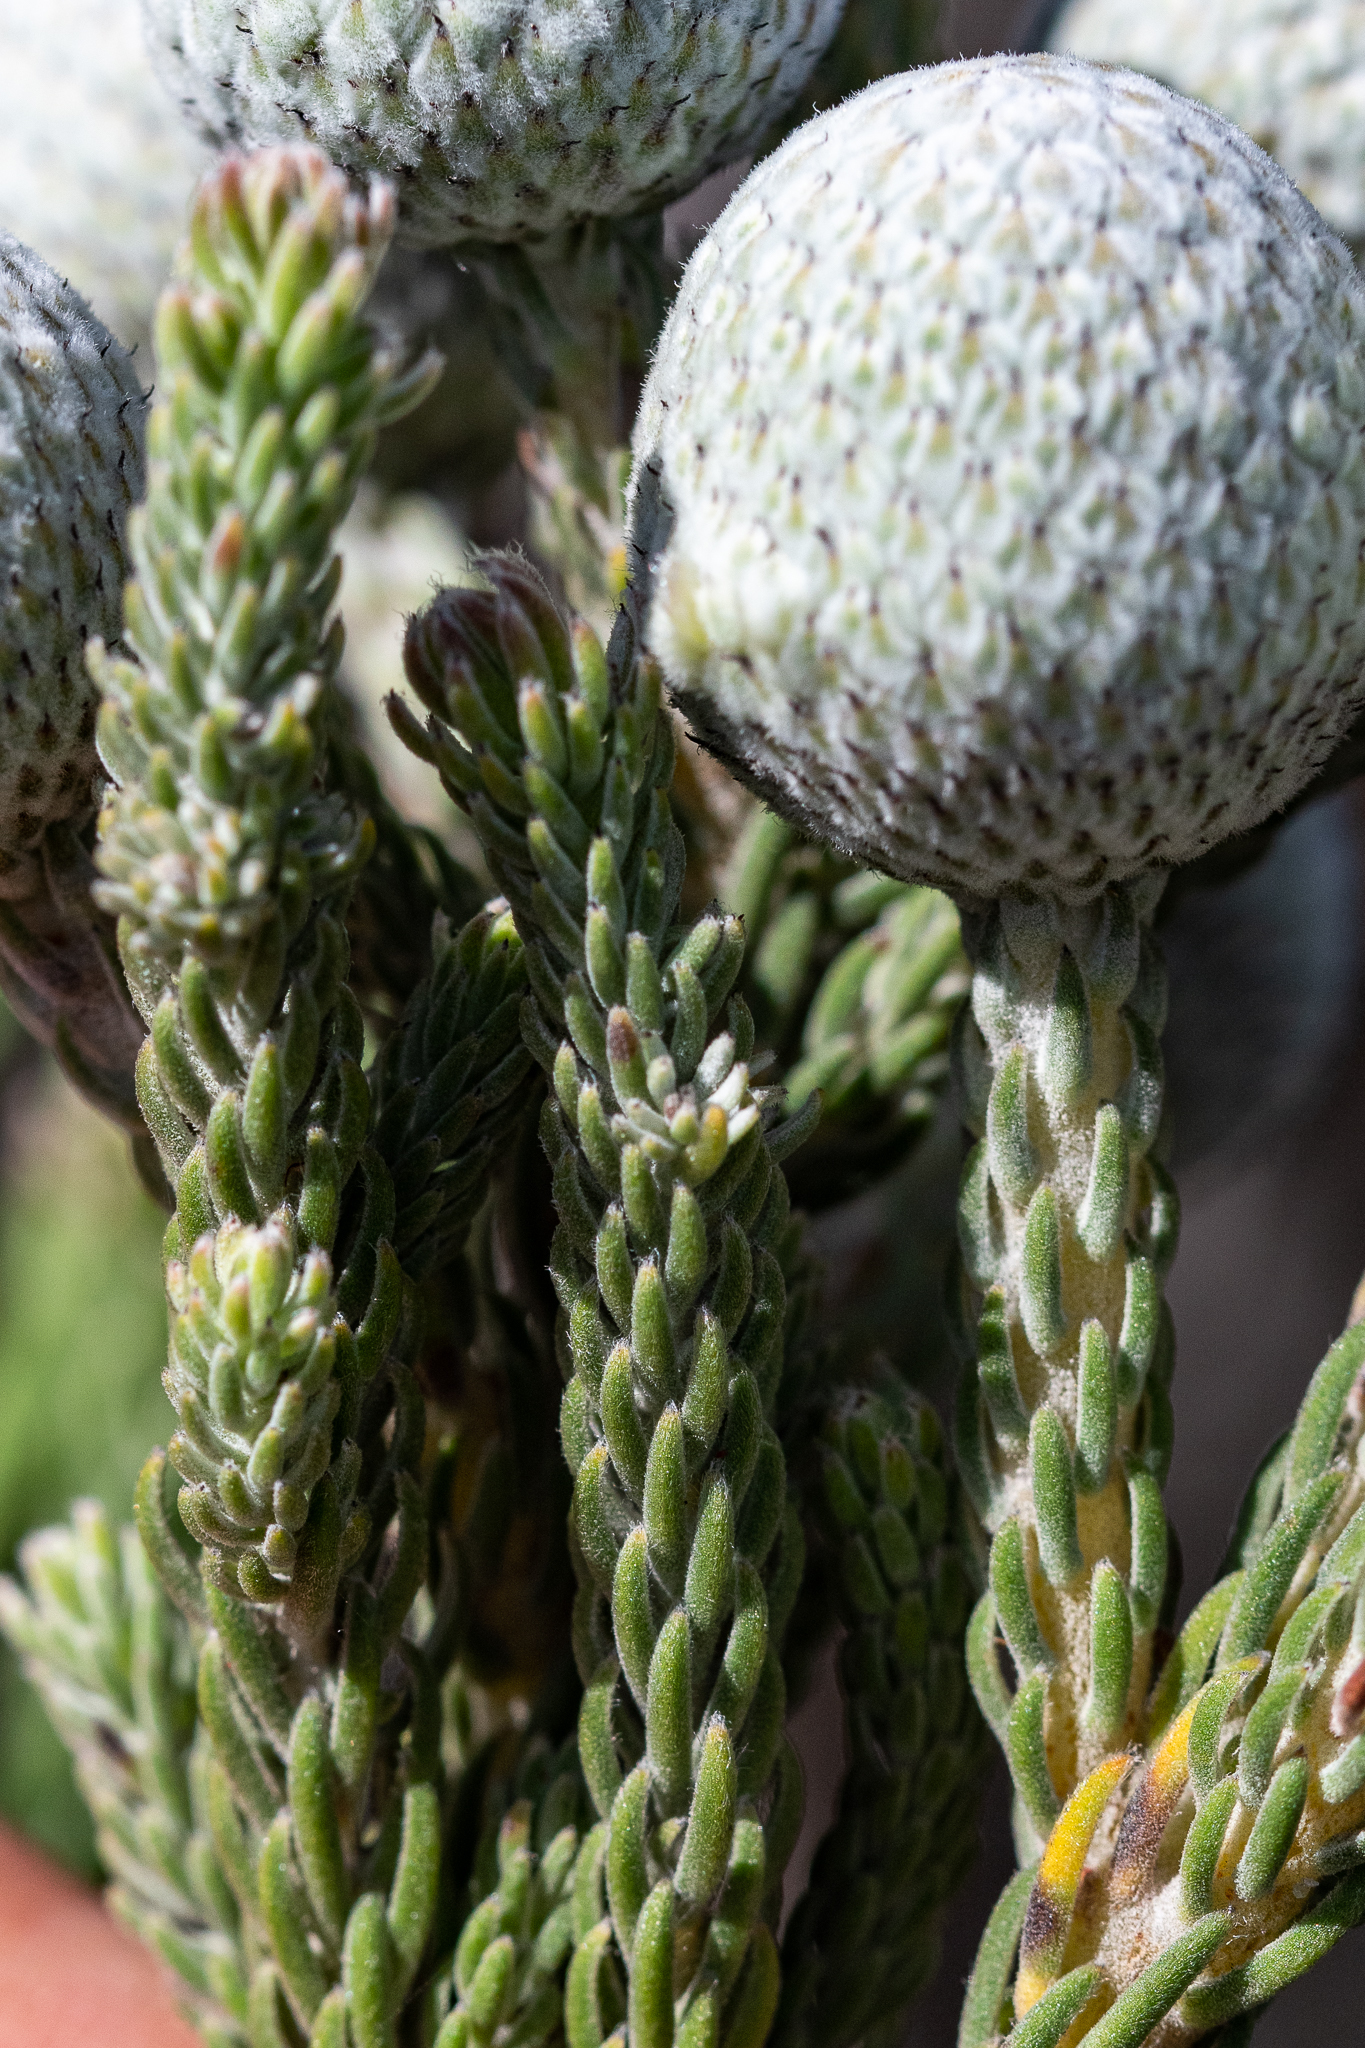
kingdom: Plantae
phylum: Tracheophyta
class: Magnoliopsida
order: Bruniales
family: Bruniaceae
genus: Brunia
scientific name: Brunia laevis
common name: Silver brunia
